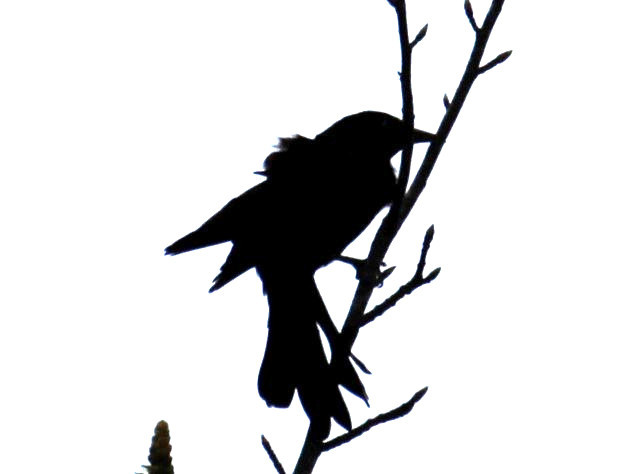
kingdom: Animalia
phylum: Chordata
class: Aves
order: Passeriformes
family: Icteridae
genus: Quiscalus
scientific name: Quiscalus quiscula
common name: Common grackle
